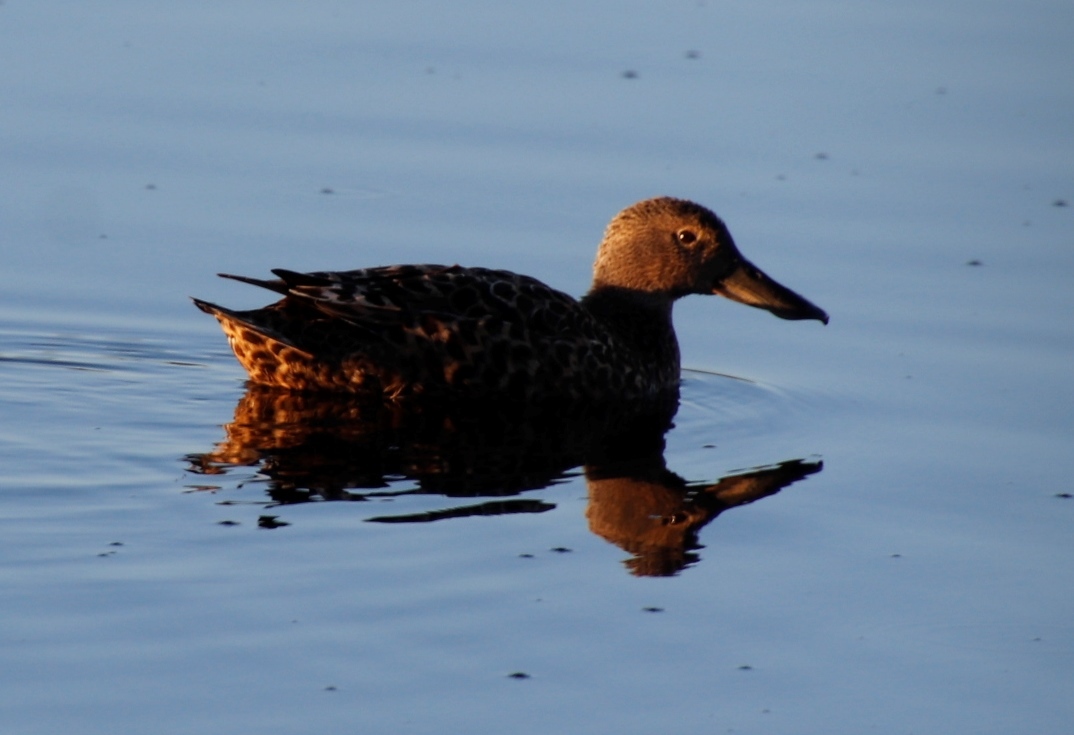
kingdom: Animalia
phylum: Chordata
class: Aves
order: Anseriformes
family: Anatidae
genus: Spatula
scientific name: Spatula smithii
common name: Cape shoveler
